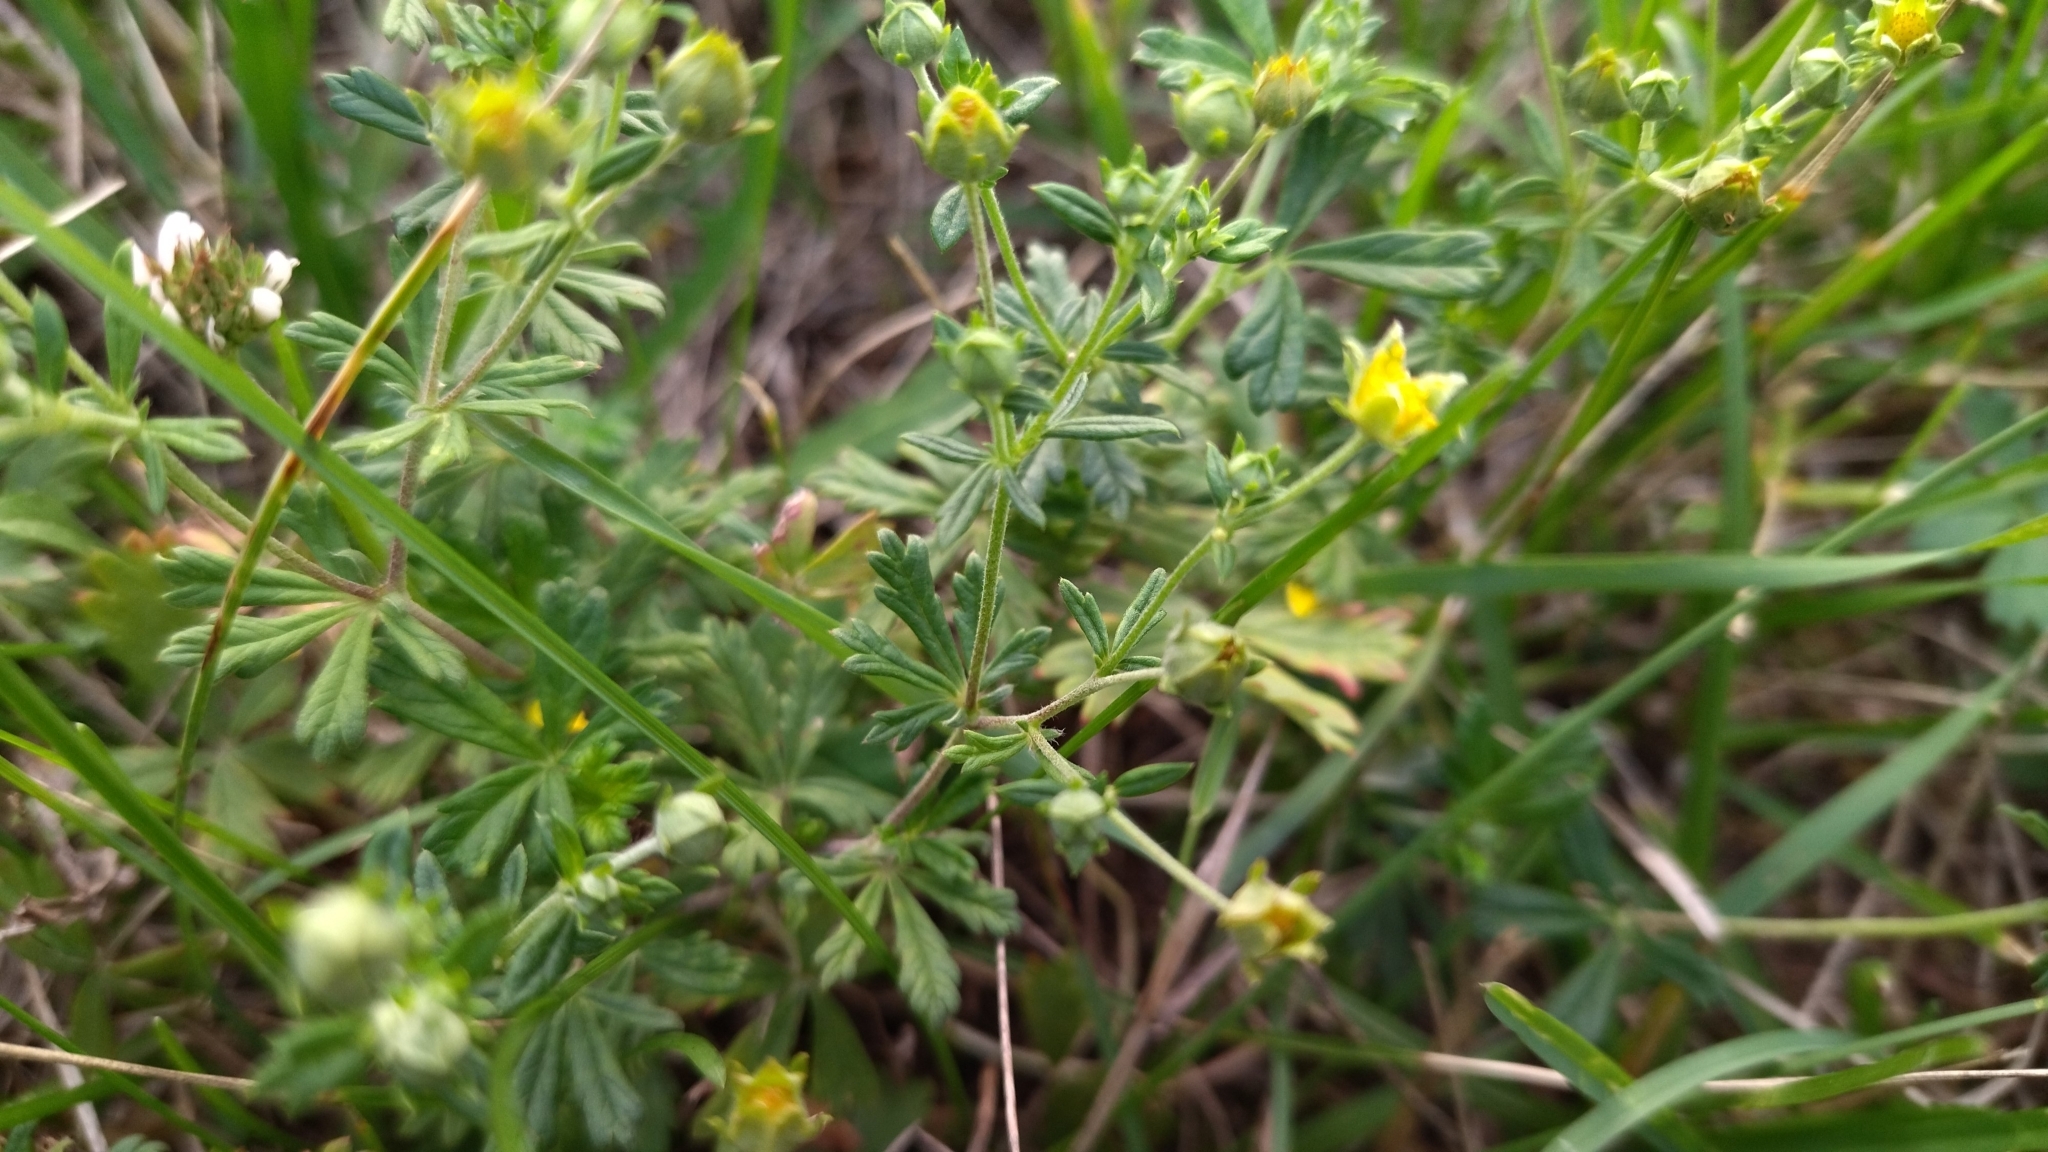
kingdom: Plantae
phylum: Tracheophyta
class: Magnoliopsida
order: Rosales
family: Rosaceae
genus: Potentilla
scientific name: Potentilla argentea
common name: Hoary cinquefoil
